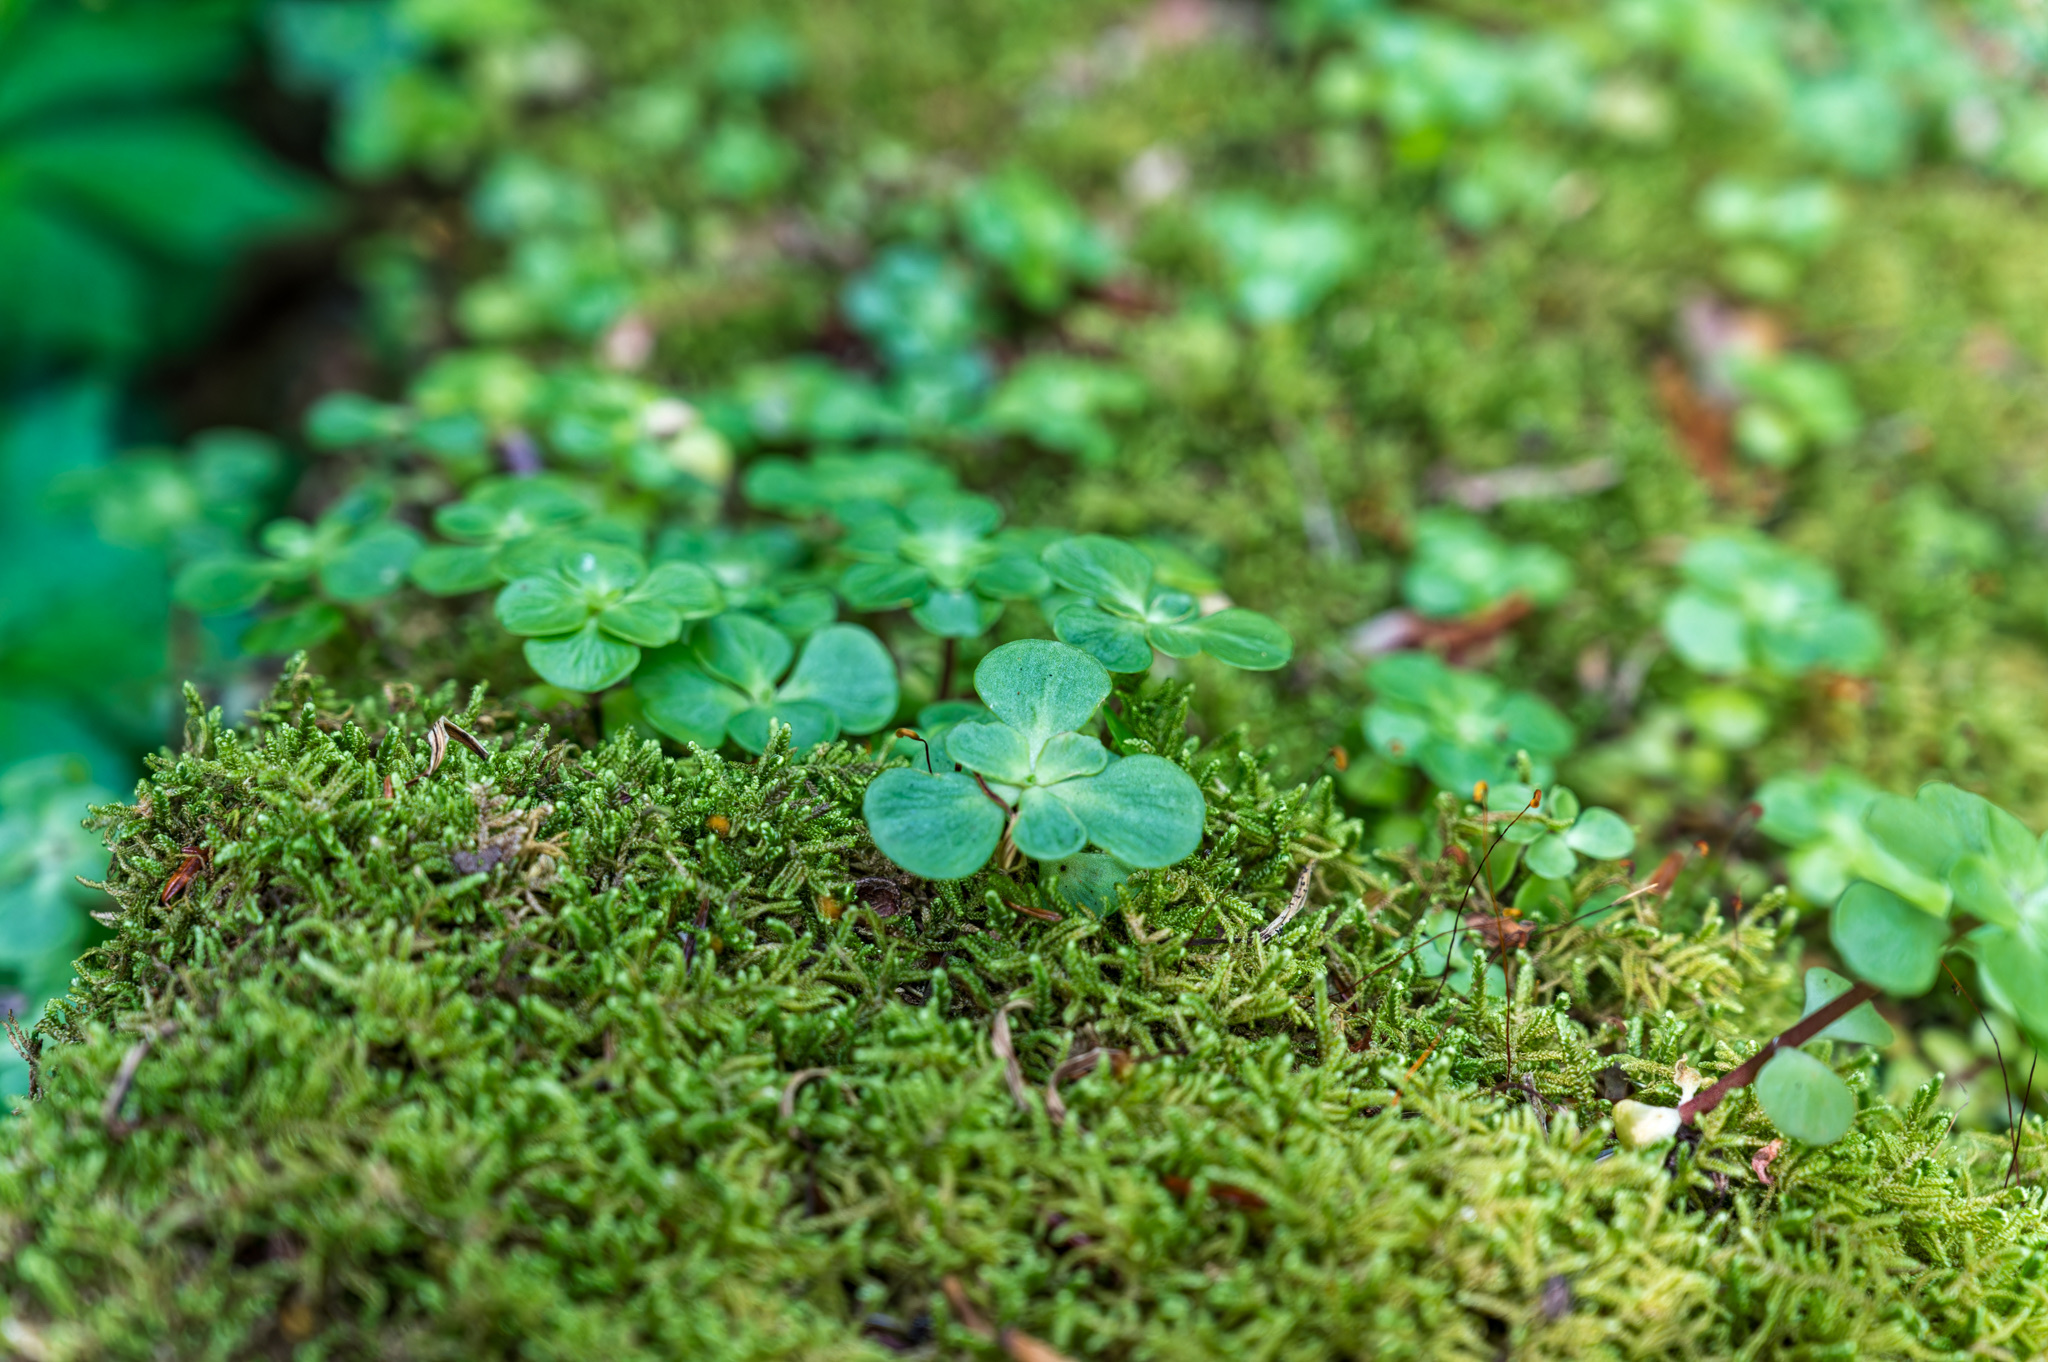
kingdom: Plantae
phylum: Tracheophyta
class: Magnoliopsida
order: Saxifragales
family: Crassulaceae
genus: Sedum
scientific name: Sedum ternatum
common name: Wild stonecrop
